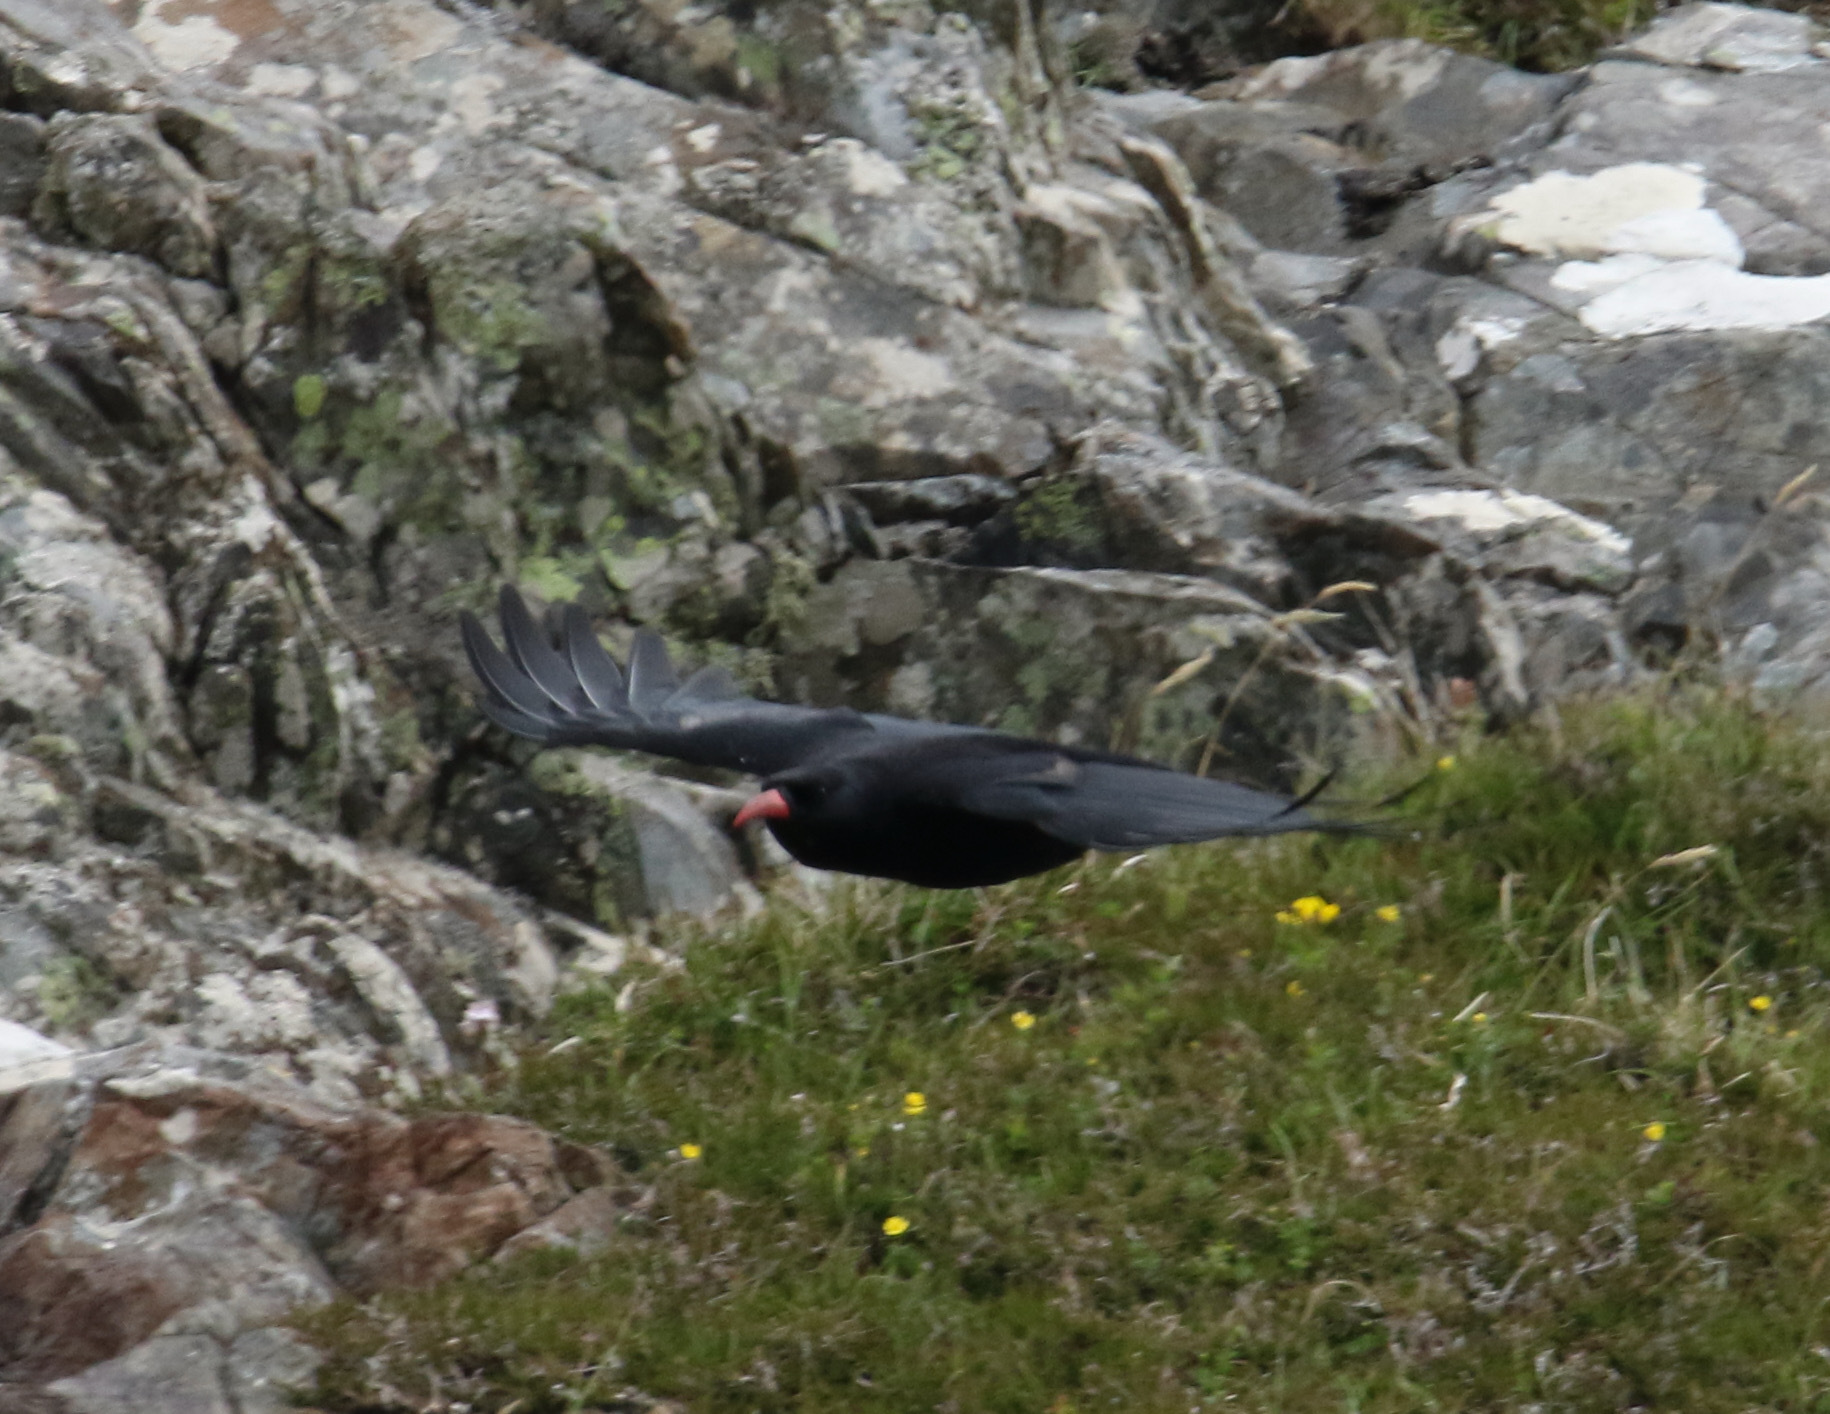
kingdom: Animalia
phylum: Chordata
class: Aves
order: Passeriformes
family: Corvidae
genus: Pyrrhocorax
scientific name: Pyrrhocorax pyrrhocorax
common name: Red-billed chough
